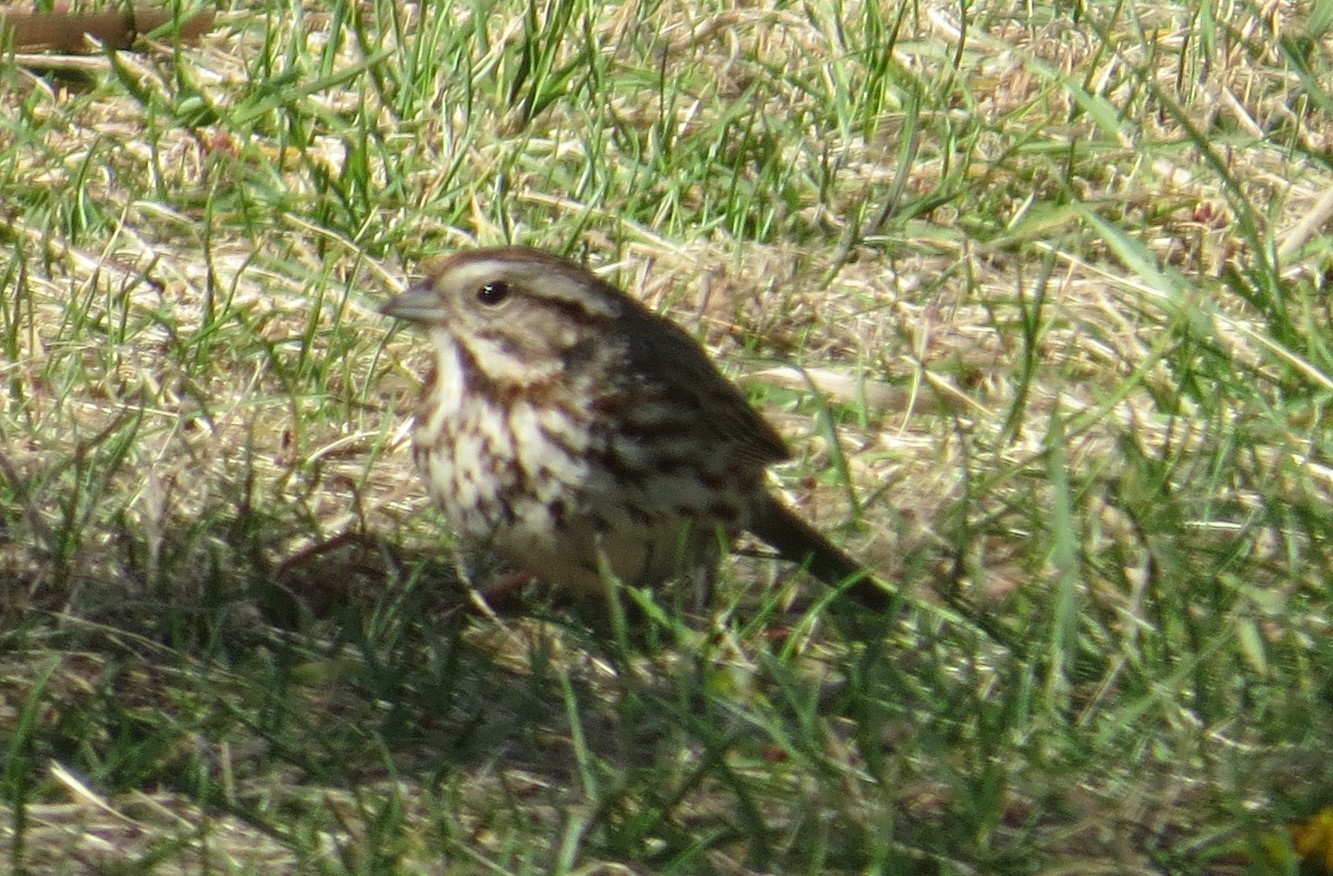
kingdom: Animalia
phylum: Chordata
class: Aves
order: Passeriformes
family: Passerellidae
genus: Melospiza
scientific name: Melospiza melodia
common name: Song sparrow
